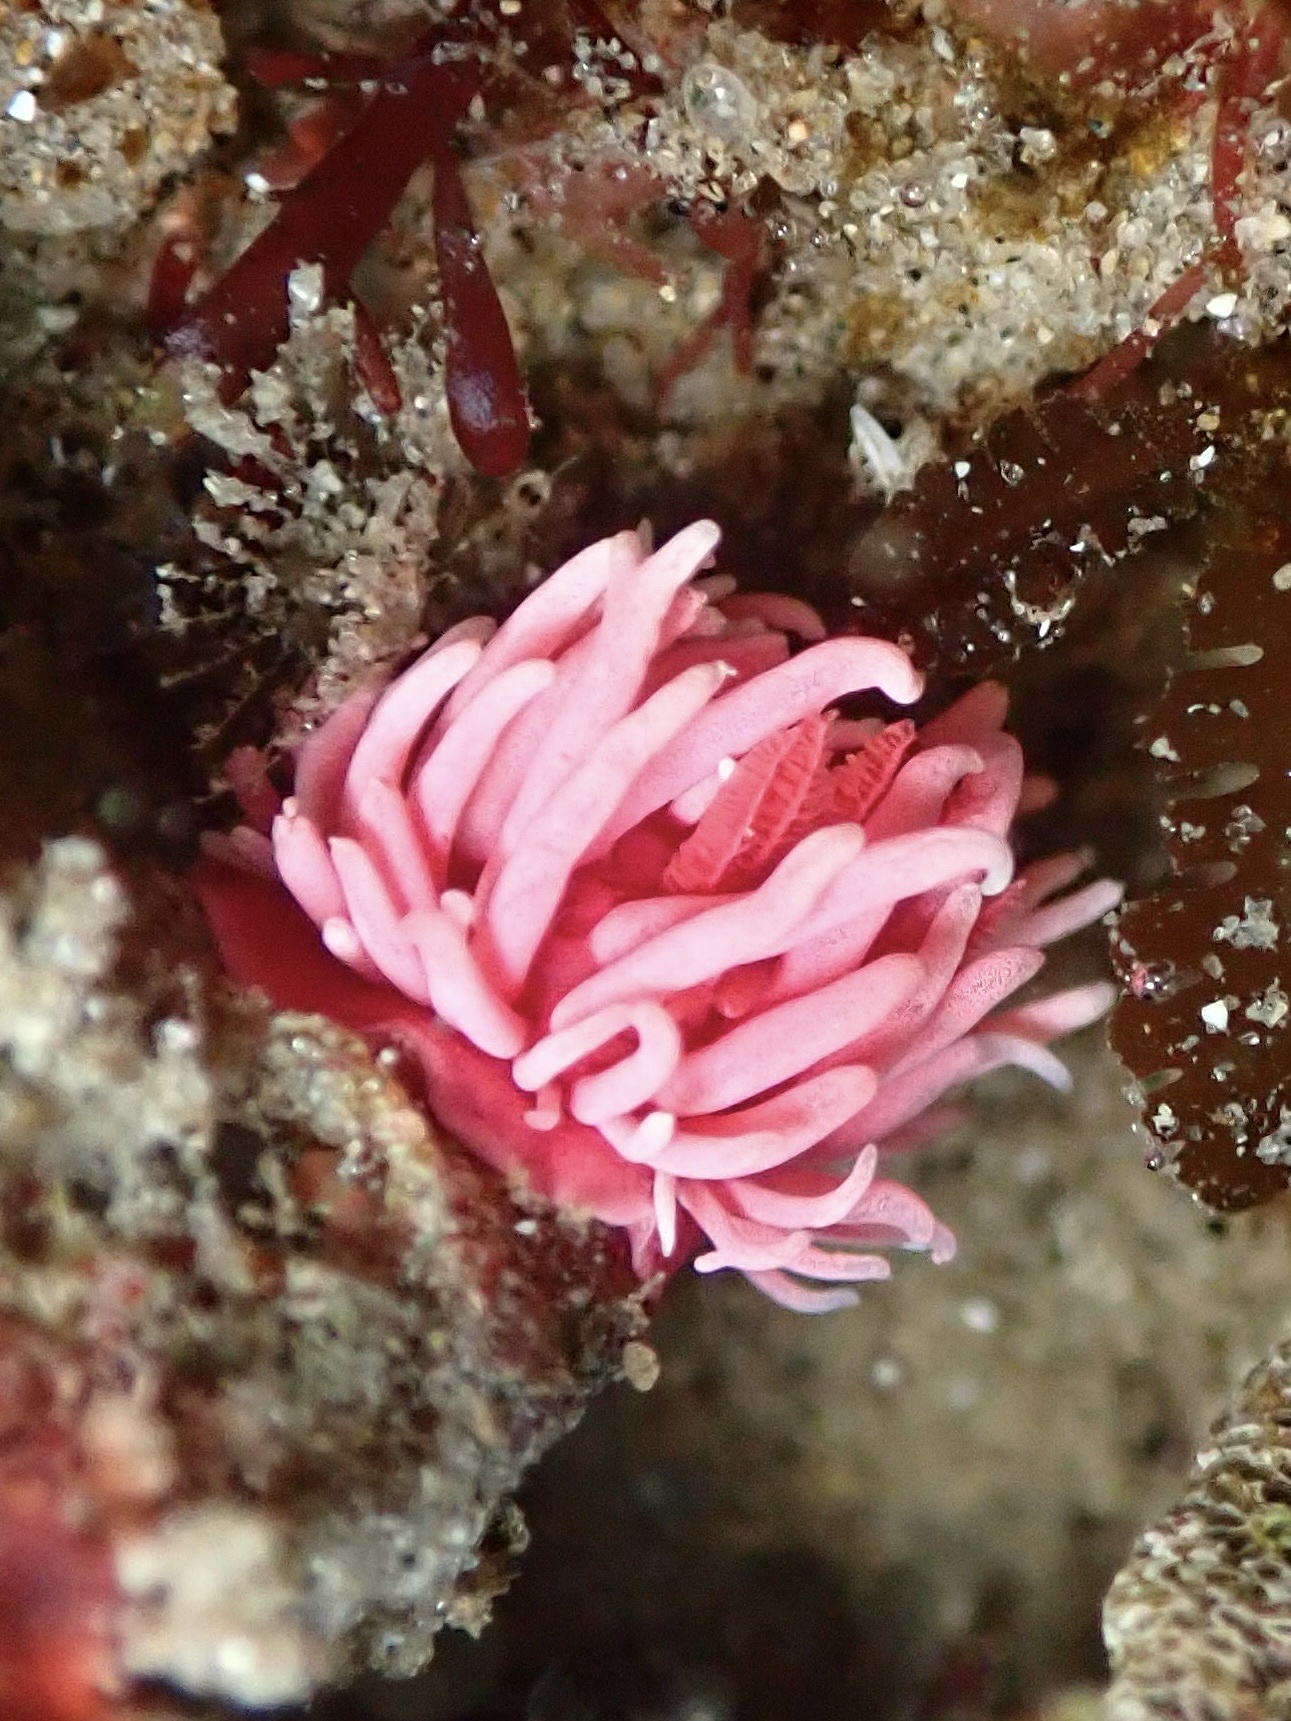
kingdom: Animalia
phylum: Mollusca
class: Gastropoda
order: Nudibranchia
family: Goniodorididae
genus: Okenia
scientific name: Okenia
